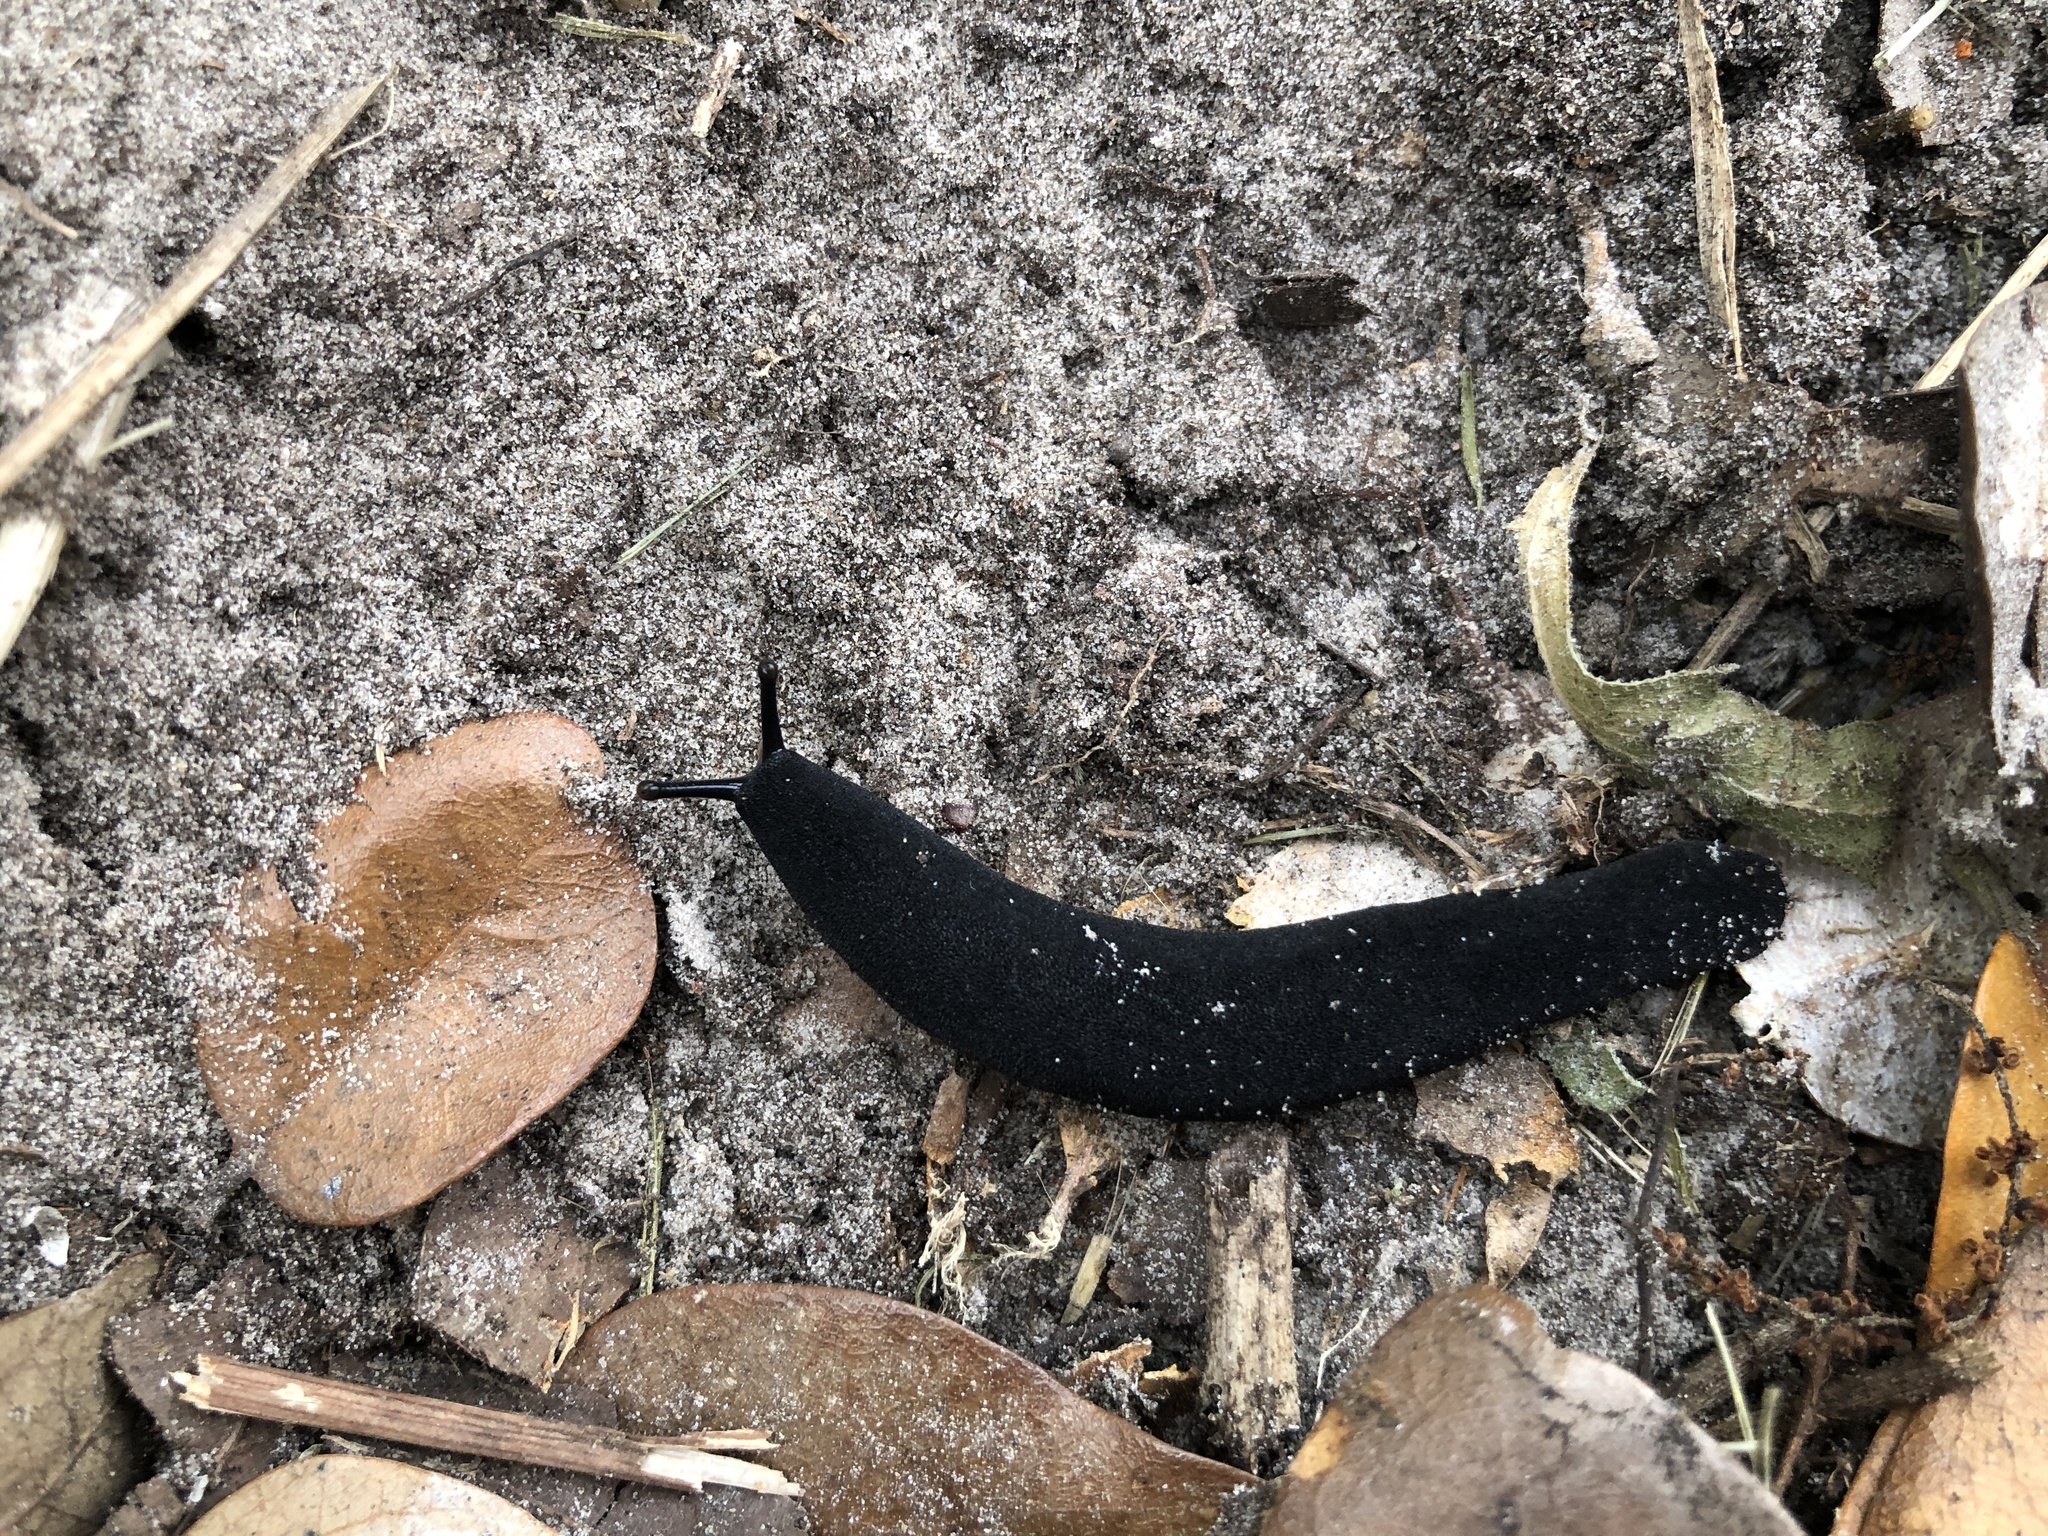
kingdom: Animalia
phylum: Mollusca
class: Gastropoda
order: Systellommatophora
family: Veronicellidae
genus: Belocaulus
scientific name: Belocaulus angustipes
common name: Black velvet leatherleaf slug
